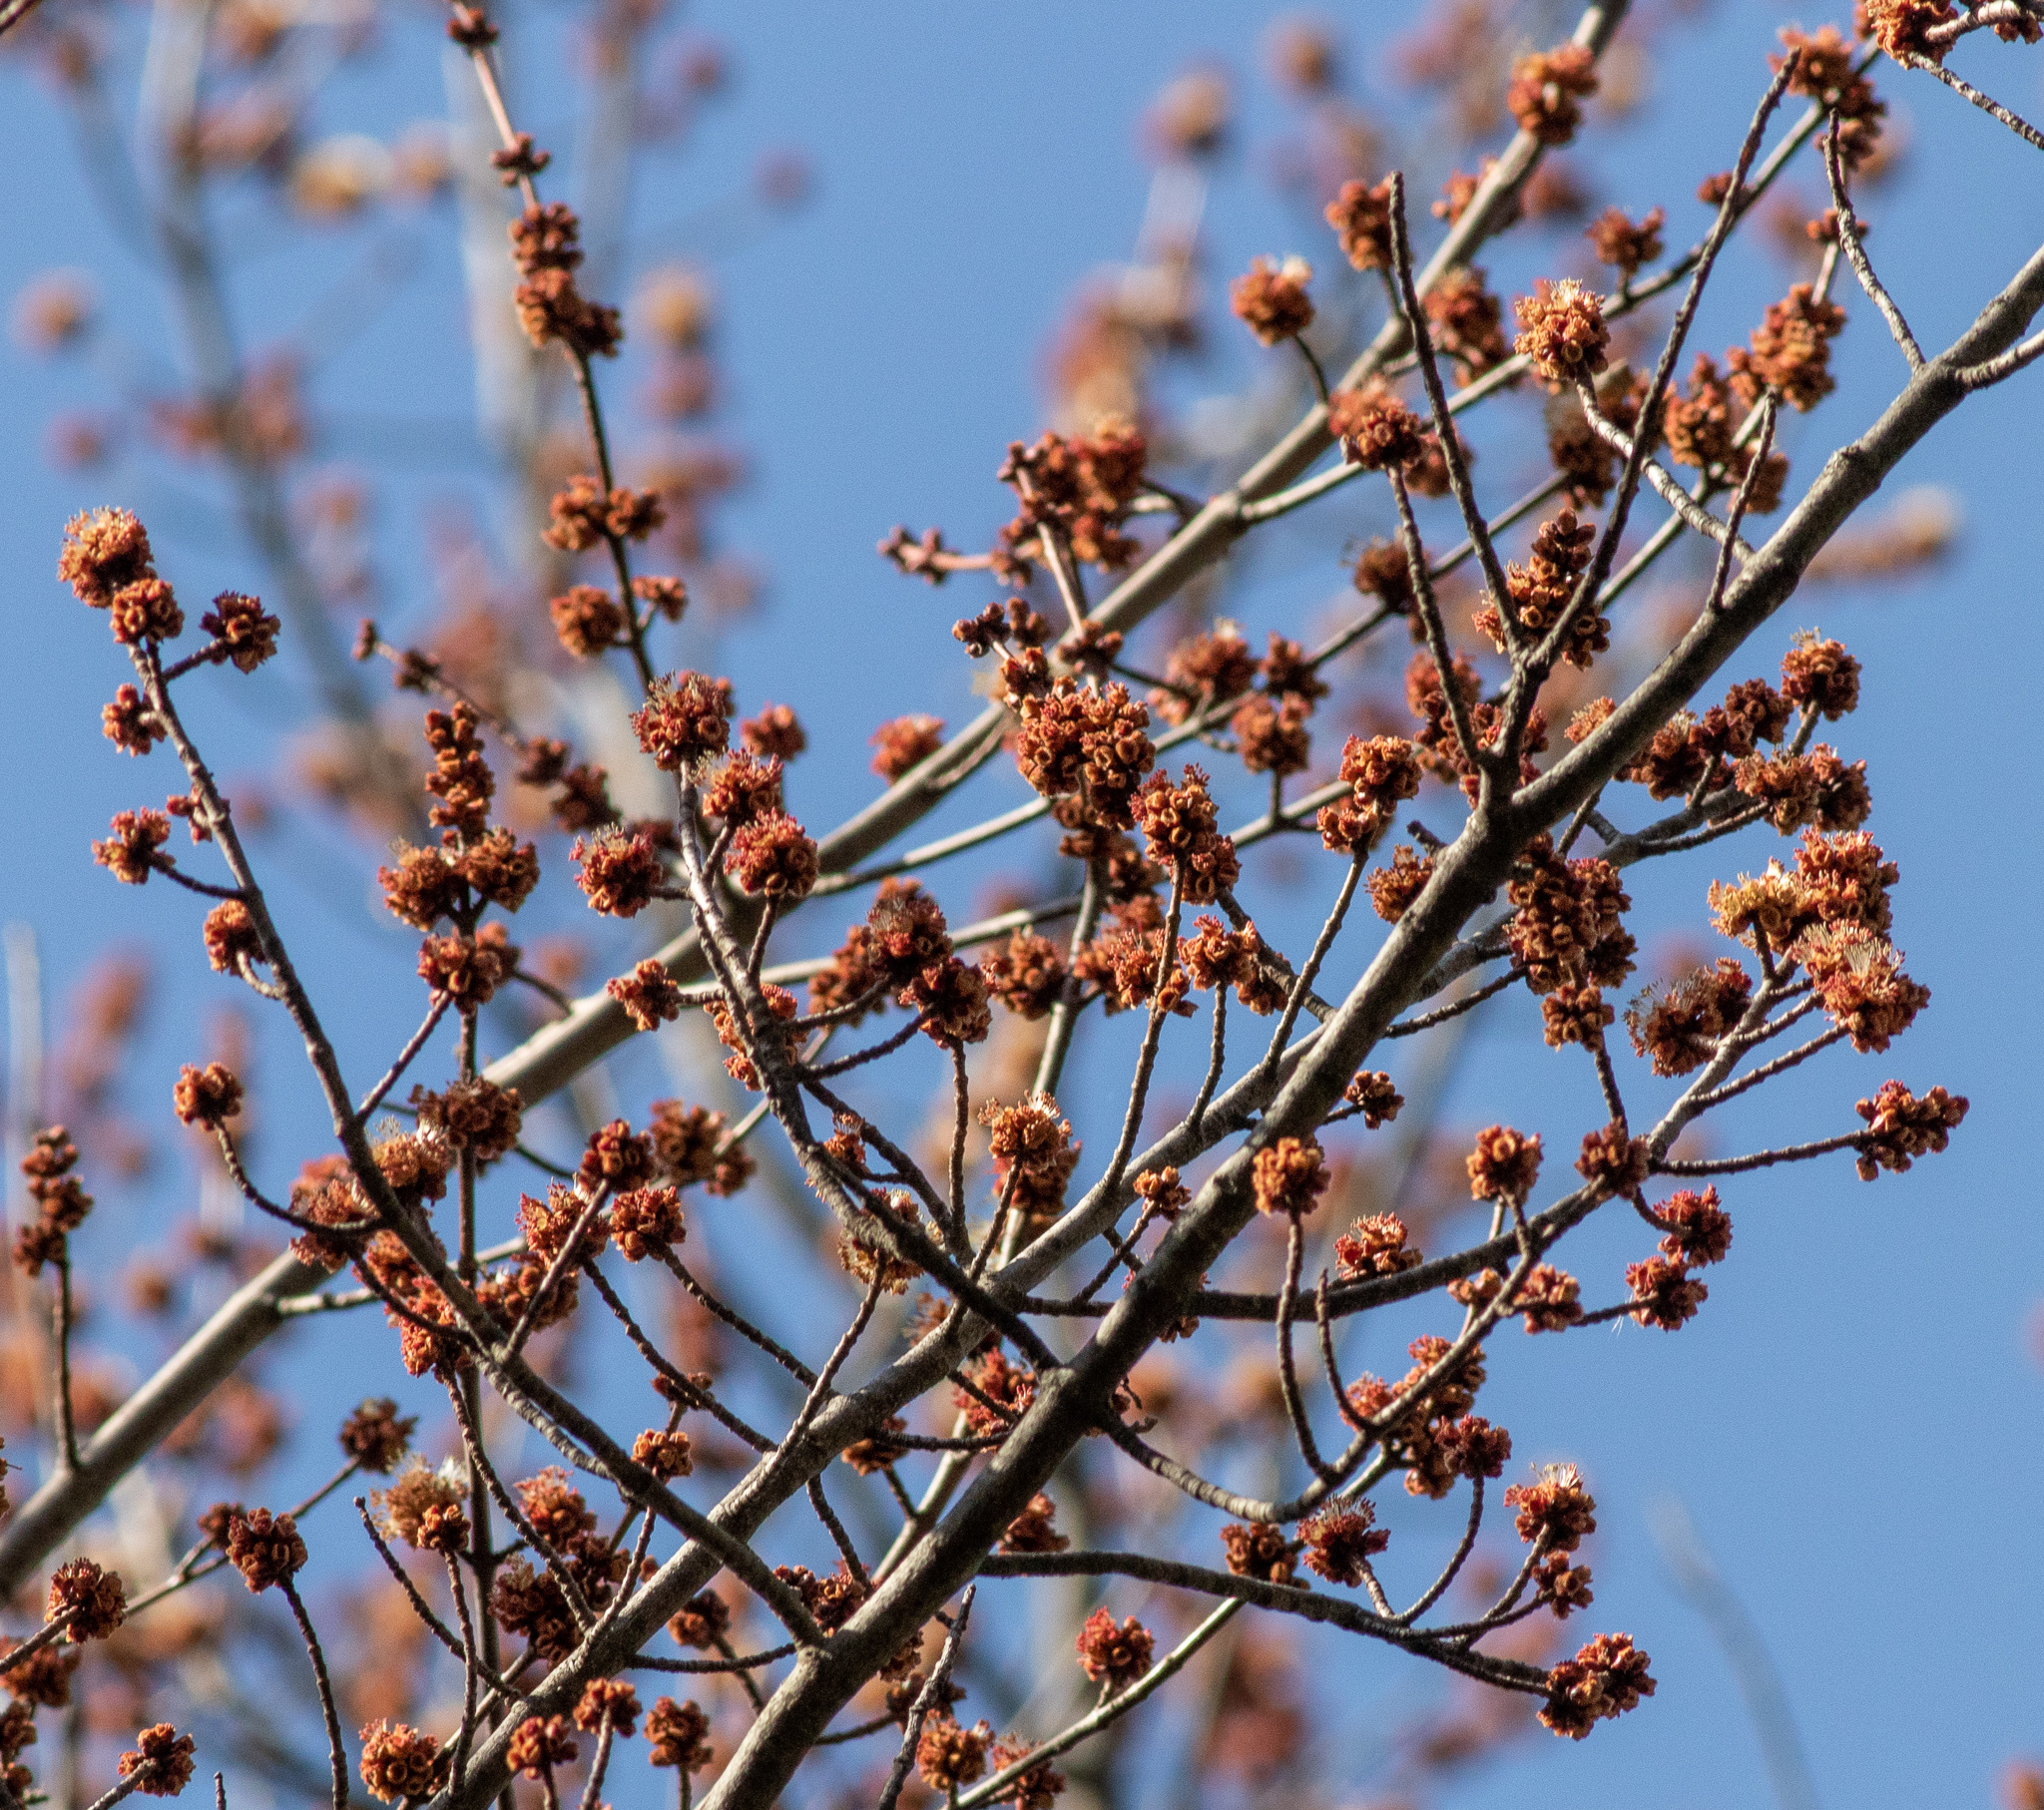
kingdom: Plantae
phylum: Tracheophyta
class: Magnoliopsida
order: Sapindales
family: Sapindaceae
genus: Acer
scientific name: Acer rubrum
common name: Red maple
